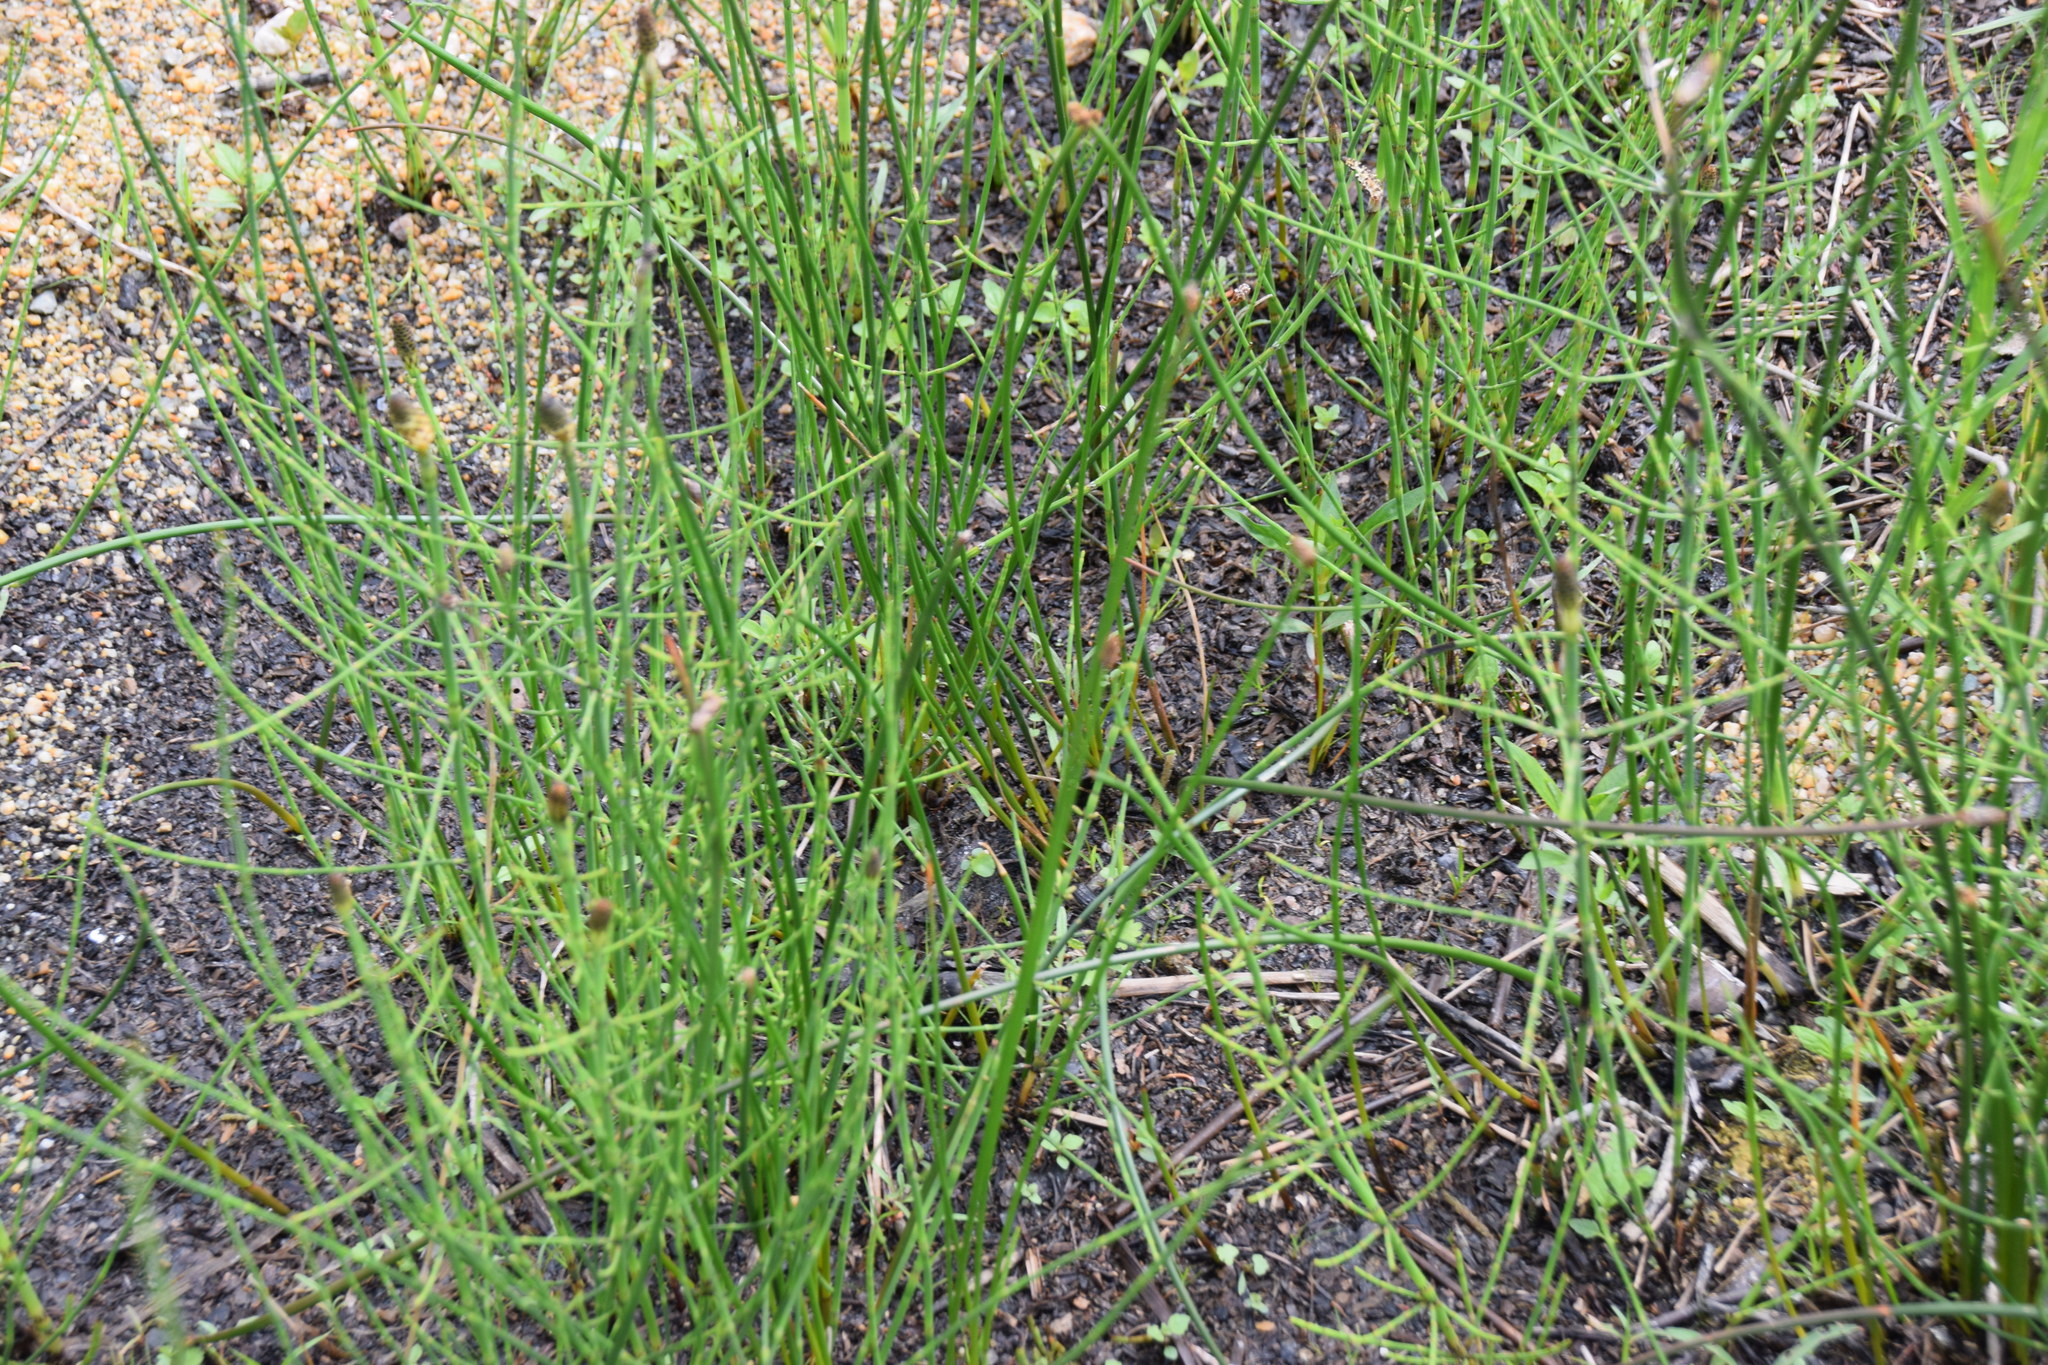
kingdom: Plantae
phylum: Tracheophyta
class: Polypodiopsida
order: Equisetales
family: Equisetaceae
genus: Equisetum
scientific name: Equisetum palustre
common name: Marsh horsetail
